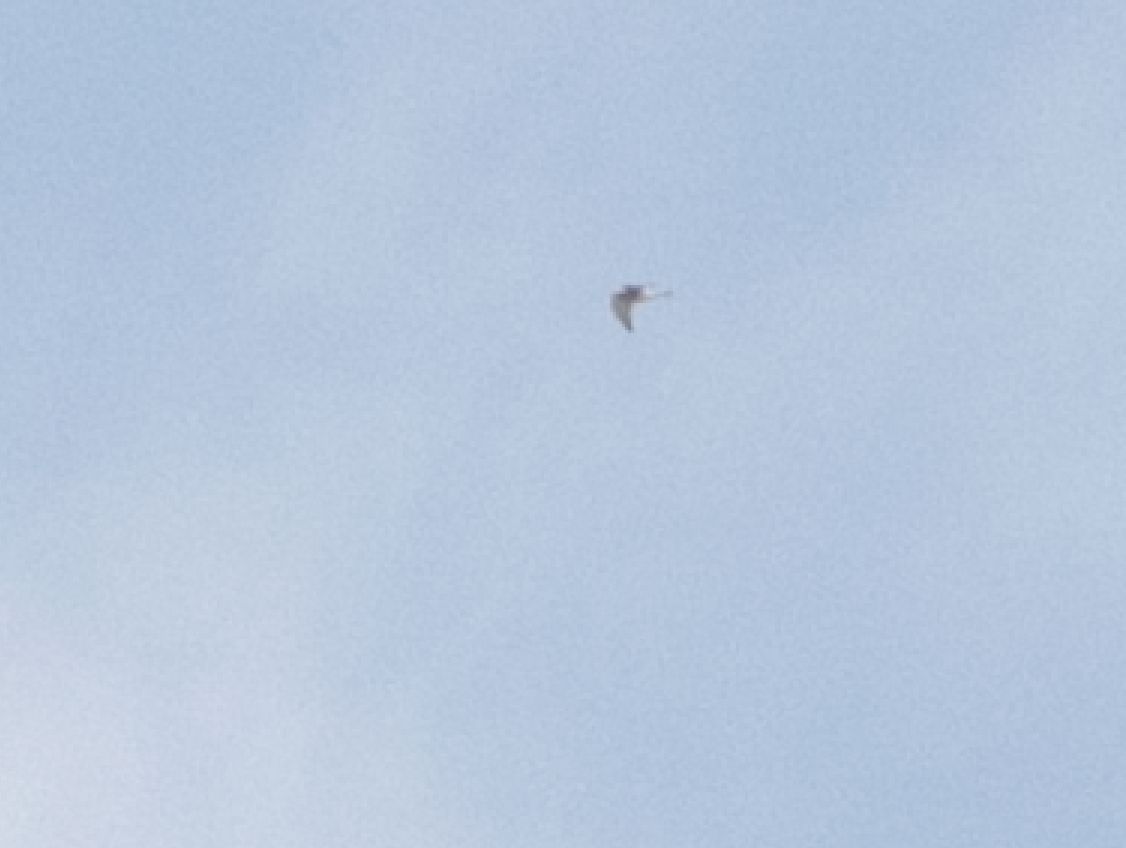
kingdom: Animalia
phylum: Chordata
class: Aves
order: Falconiformes
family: Falconidae
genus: Falco
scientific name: Falco tinnunculus
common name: Common kestrel
